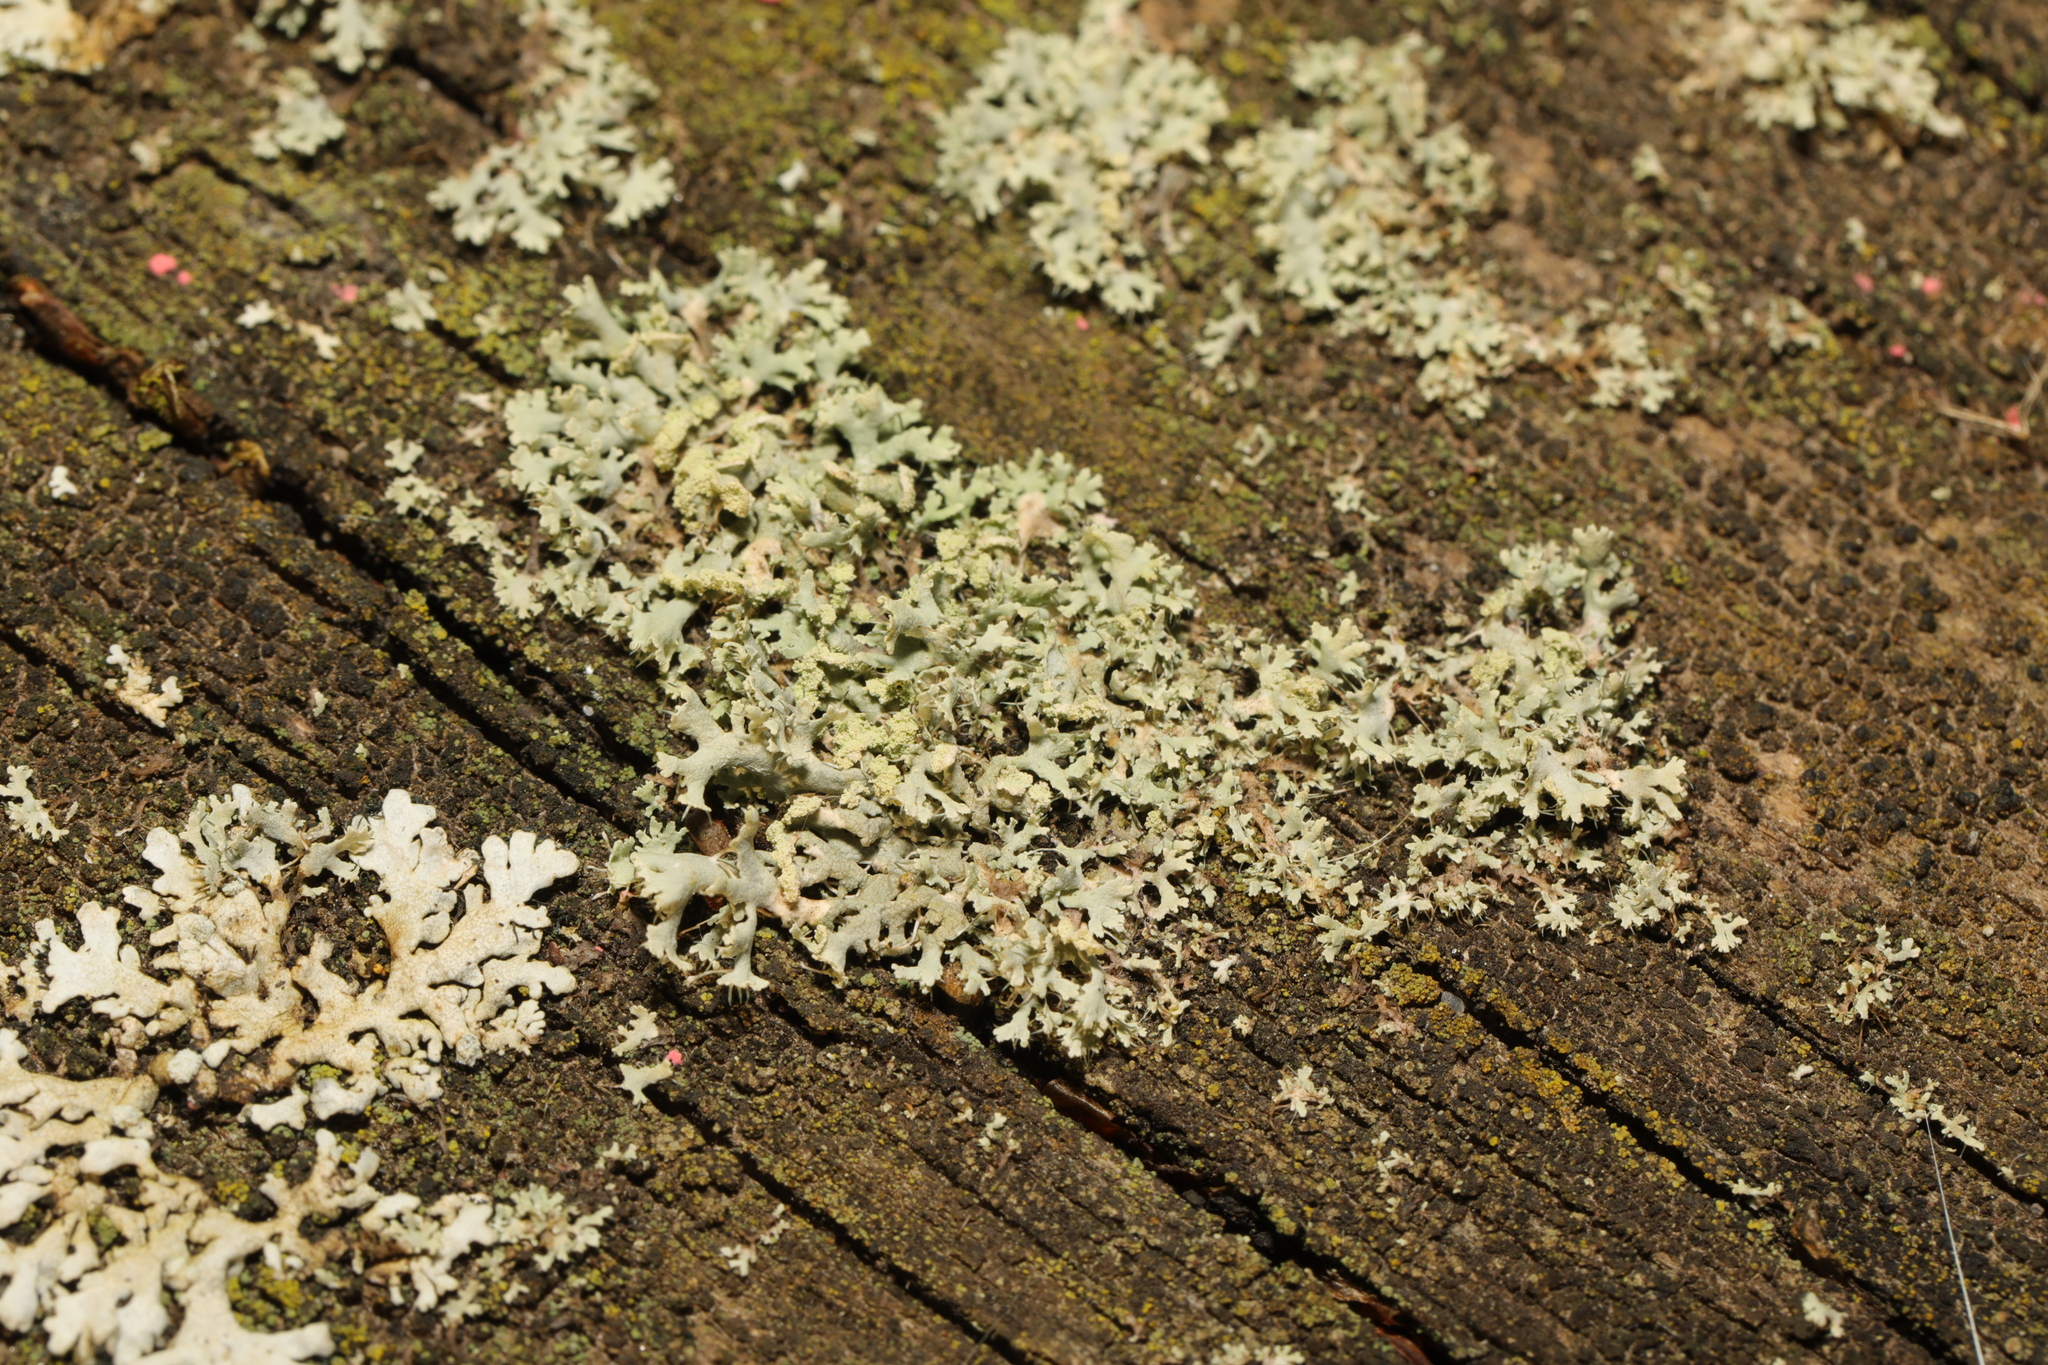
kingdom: Fungi
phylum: Ascomycota
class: Lecanoromycetes
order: Caliciales
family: Physciaceae
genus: Physcia
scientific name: Physcia tenella
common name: Fringed rosette lichen
